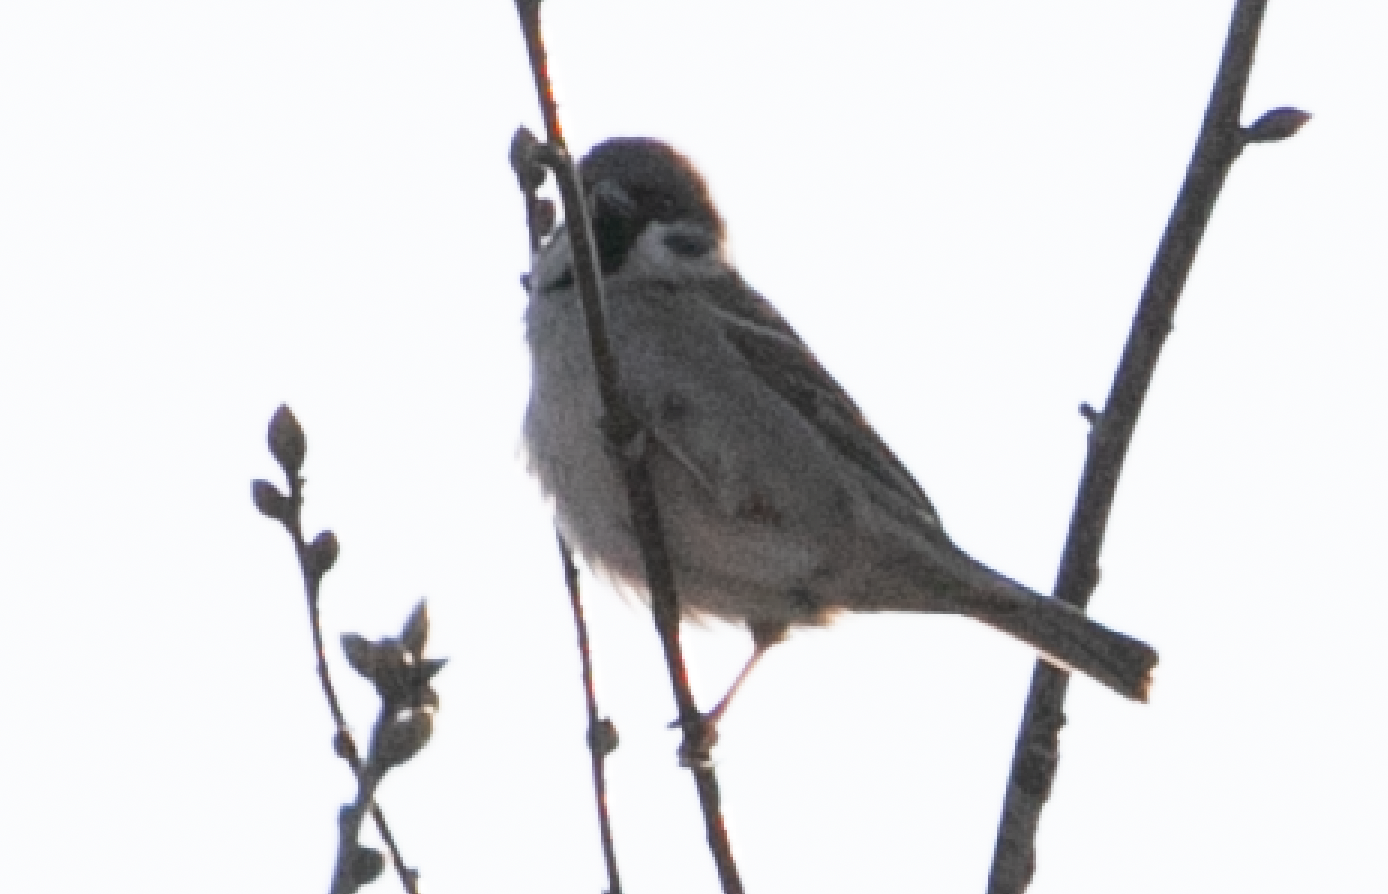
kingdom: Animalia
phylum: Chordata
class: Aves
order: Passeriformes
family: Passeridae
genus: Passer
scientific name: Passer montanus
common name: Eurasian tree sparrow
